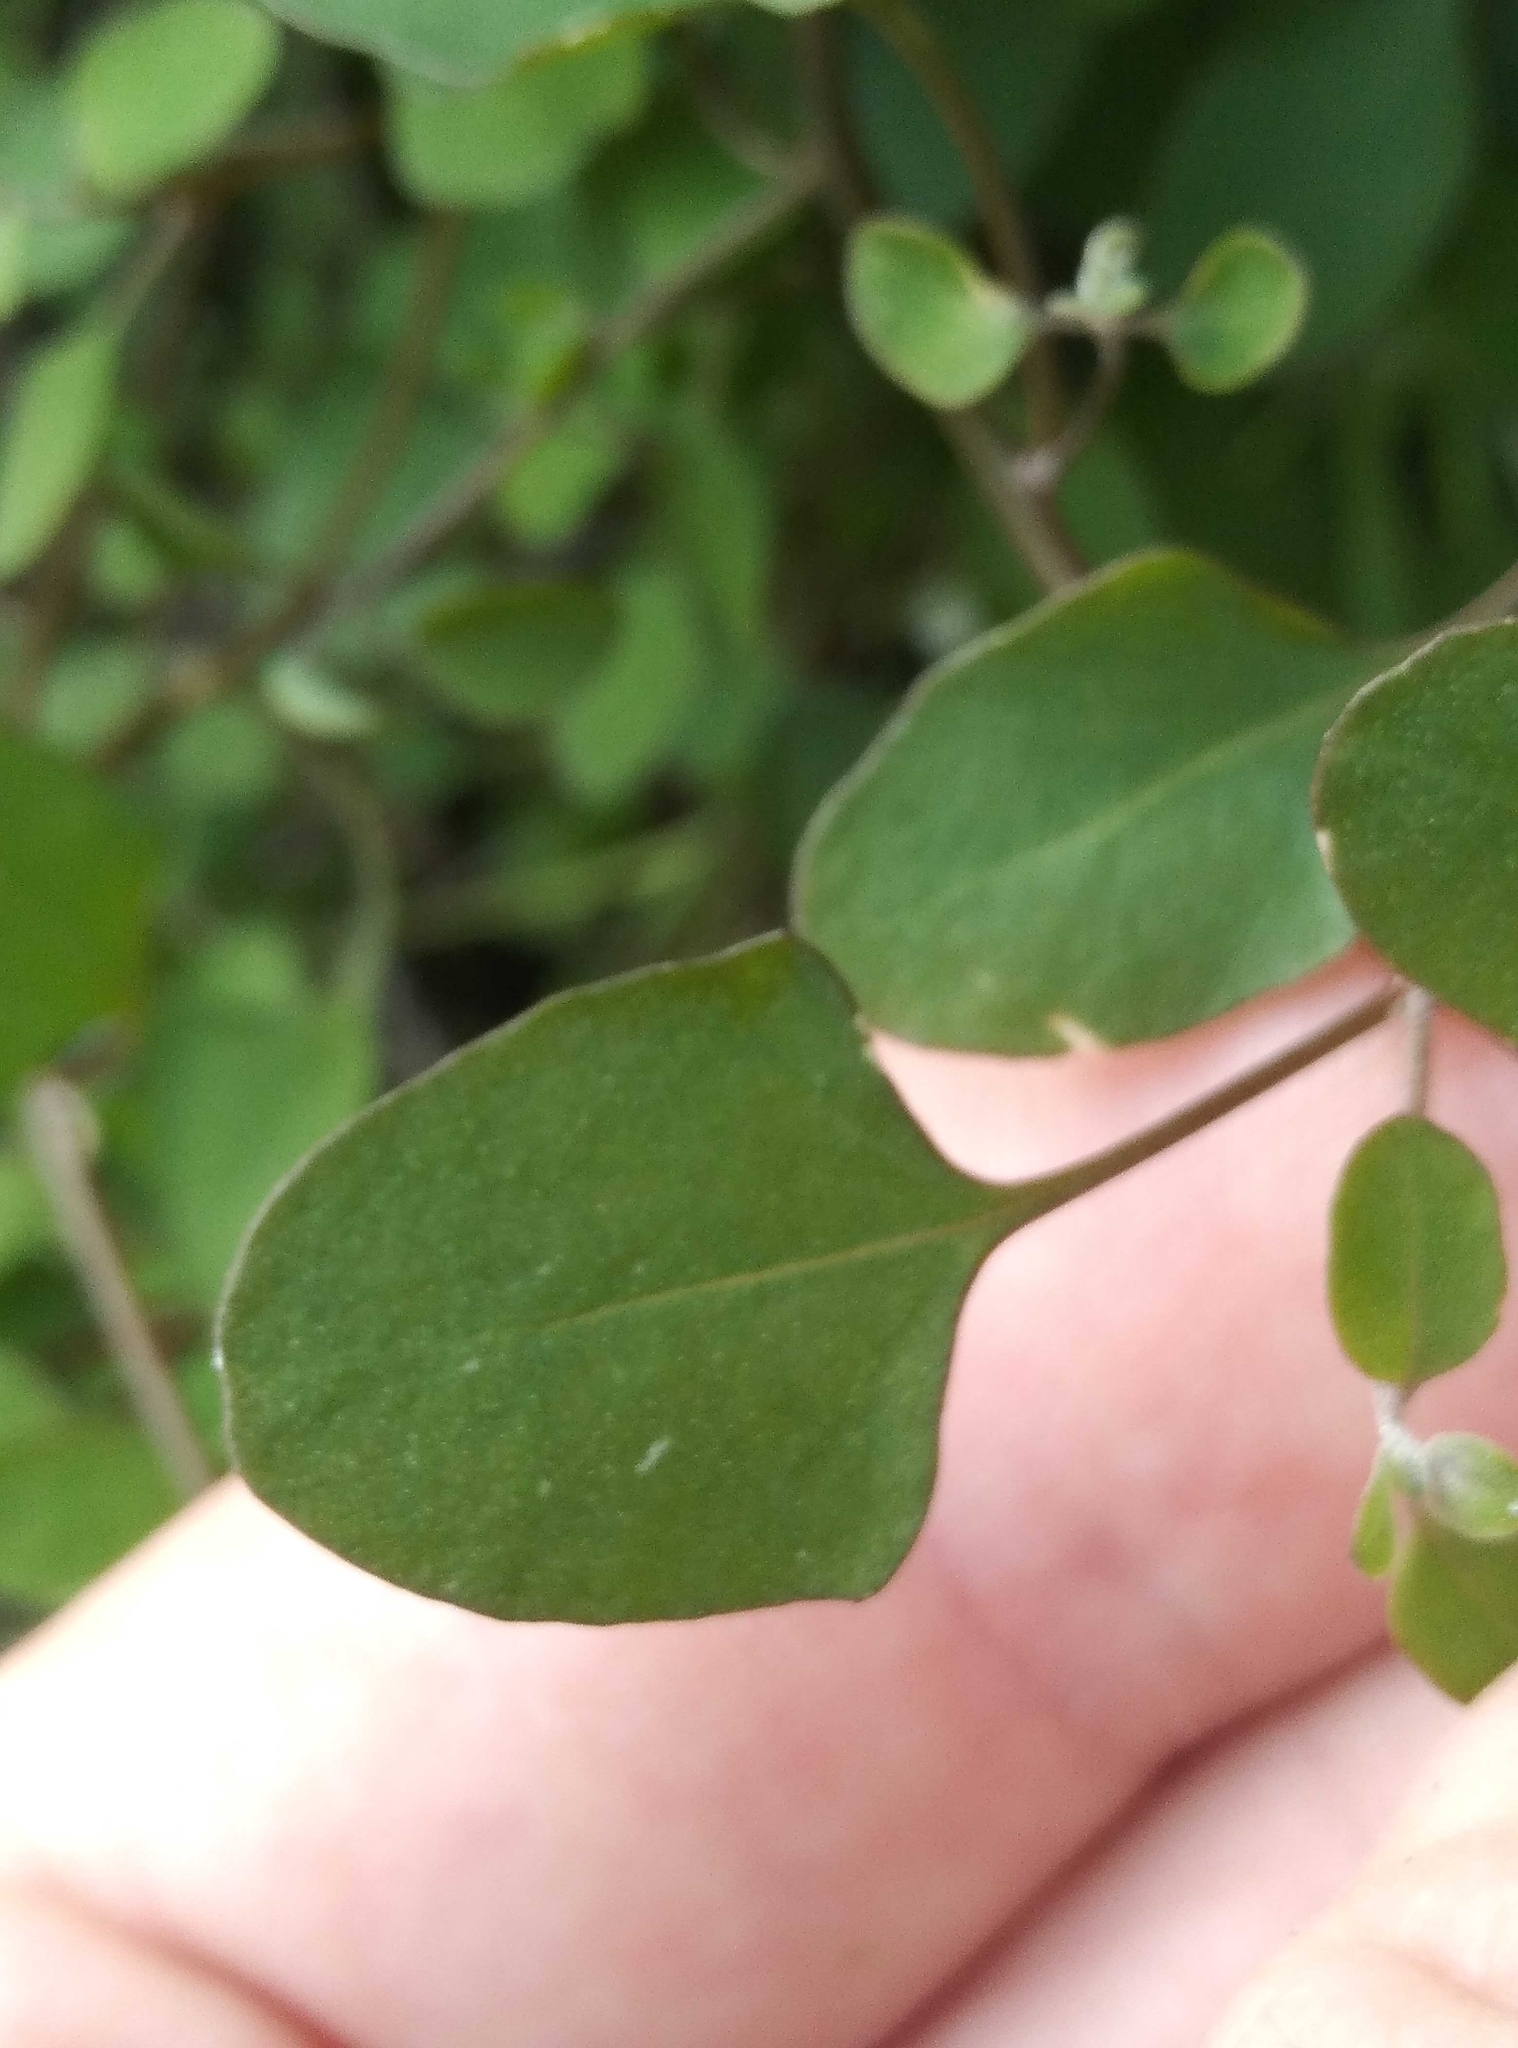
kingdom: Plantae
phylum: Tracheophyta
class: Magnoliopsida
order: Caryophyllales
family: Amaranthaceae
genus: Chenopodium
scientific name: Chenopodium allanii
